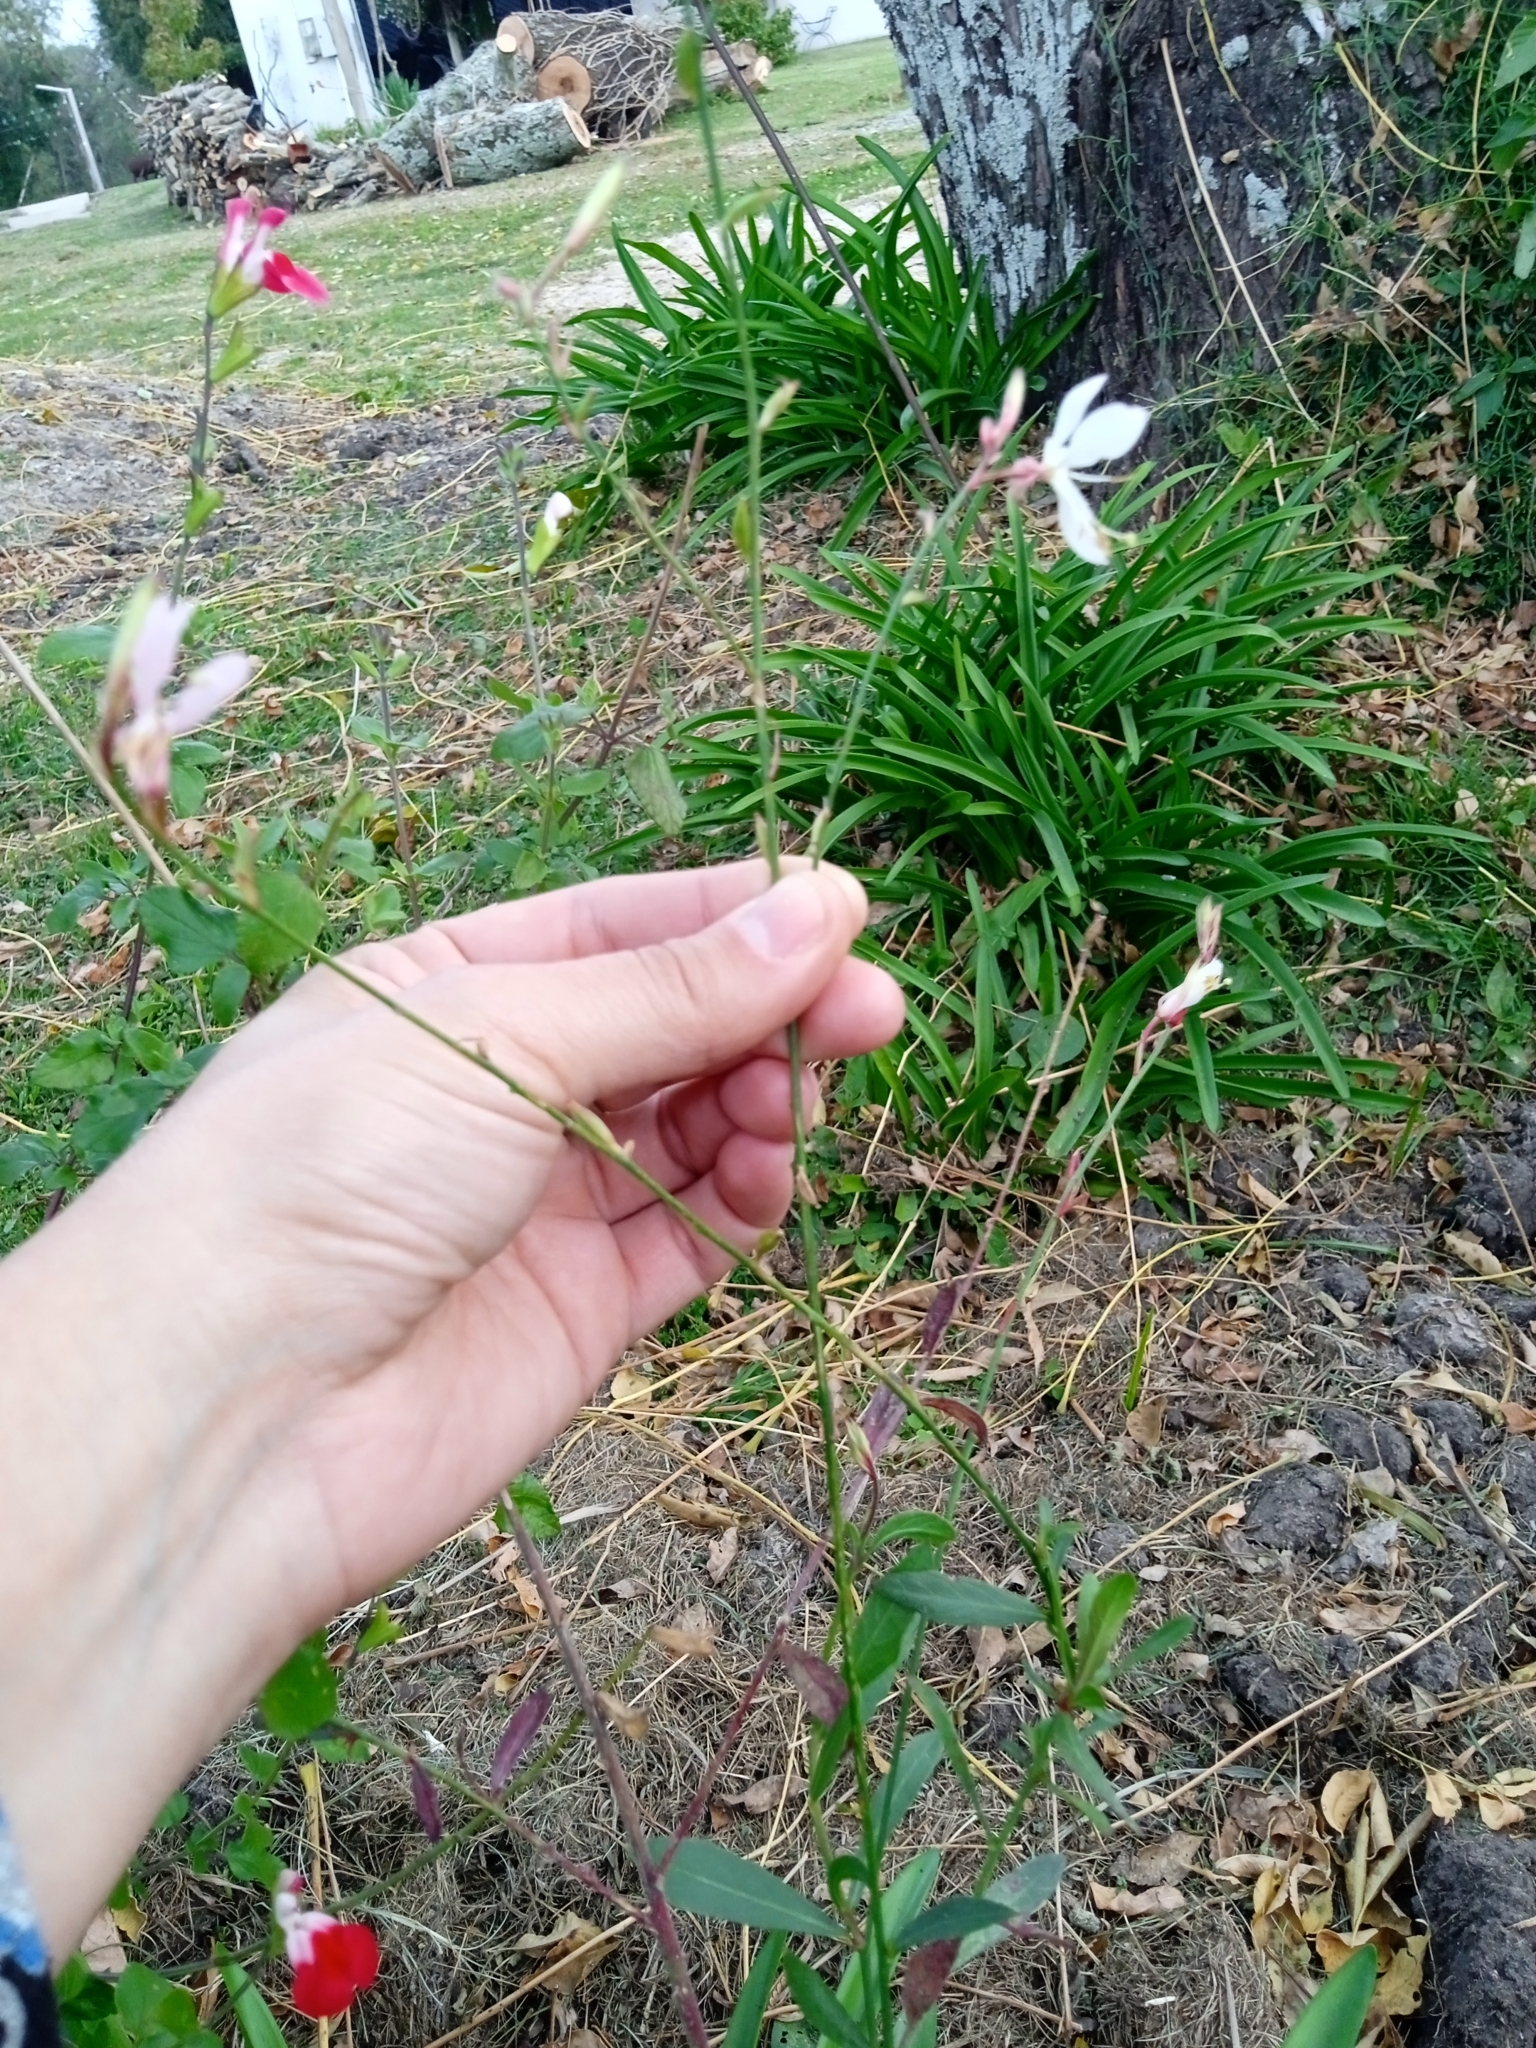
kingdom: Plantae
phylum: Tracheophyta
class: Magnoliopsida
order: Myrtales
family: Onagraceae
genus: Oenothera
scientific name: Oenothera lindheimeri
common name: Lindheimer's beeblossom
